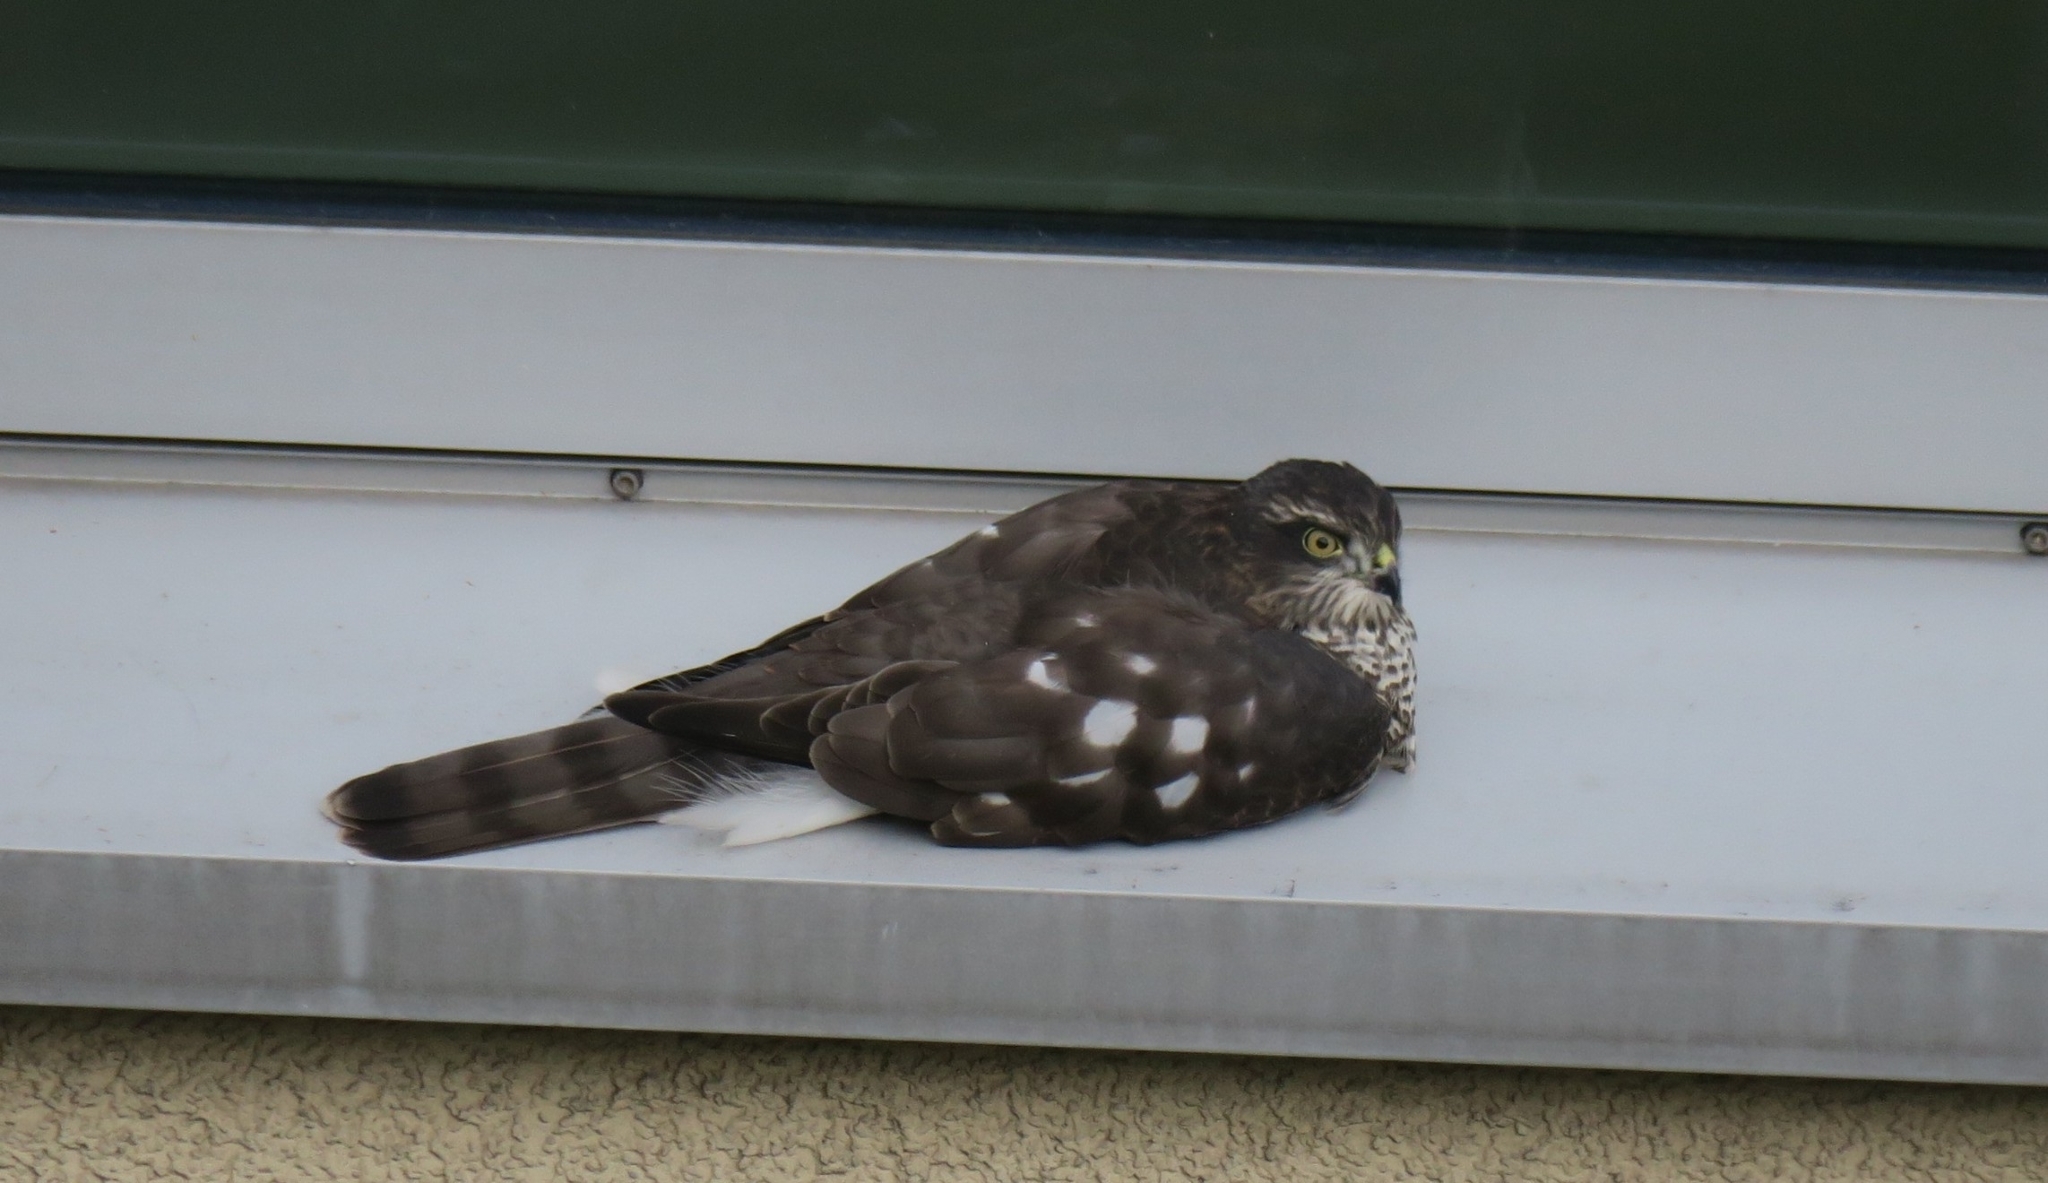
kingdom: Animalia
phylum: Chordata
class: Aves
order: Accipitriformes
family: Accipitridae
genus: Accipiter
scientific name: Accipiter nisus
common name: Eurasian sparrowhawk
